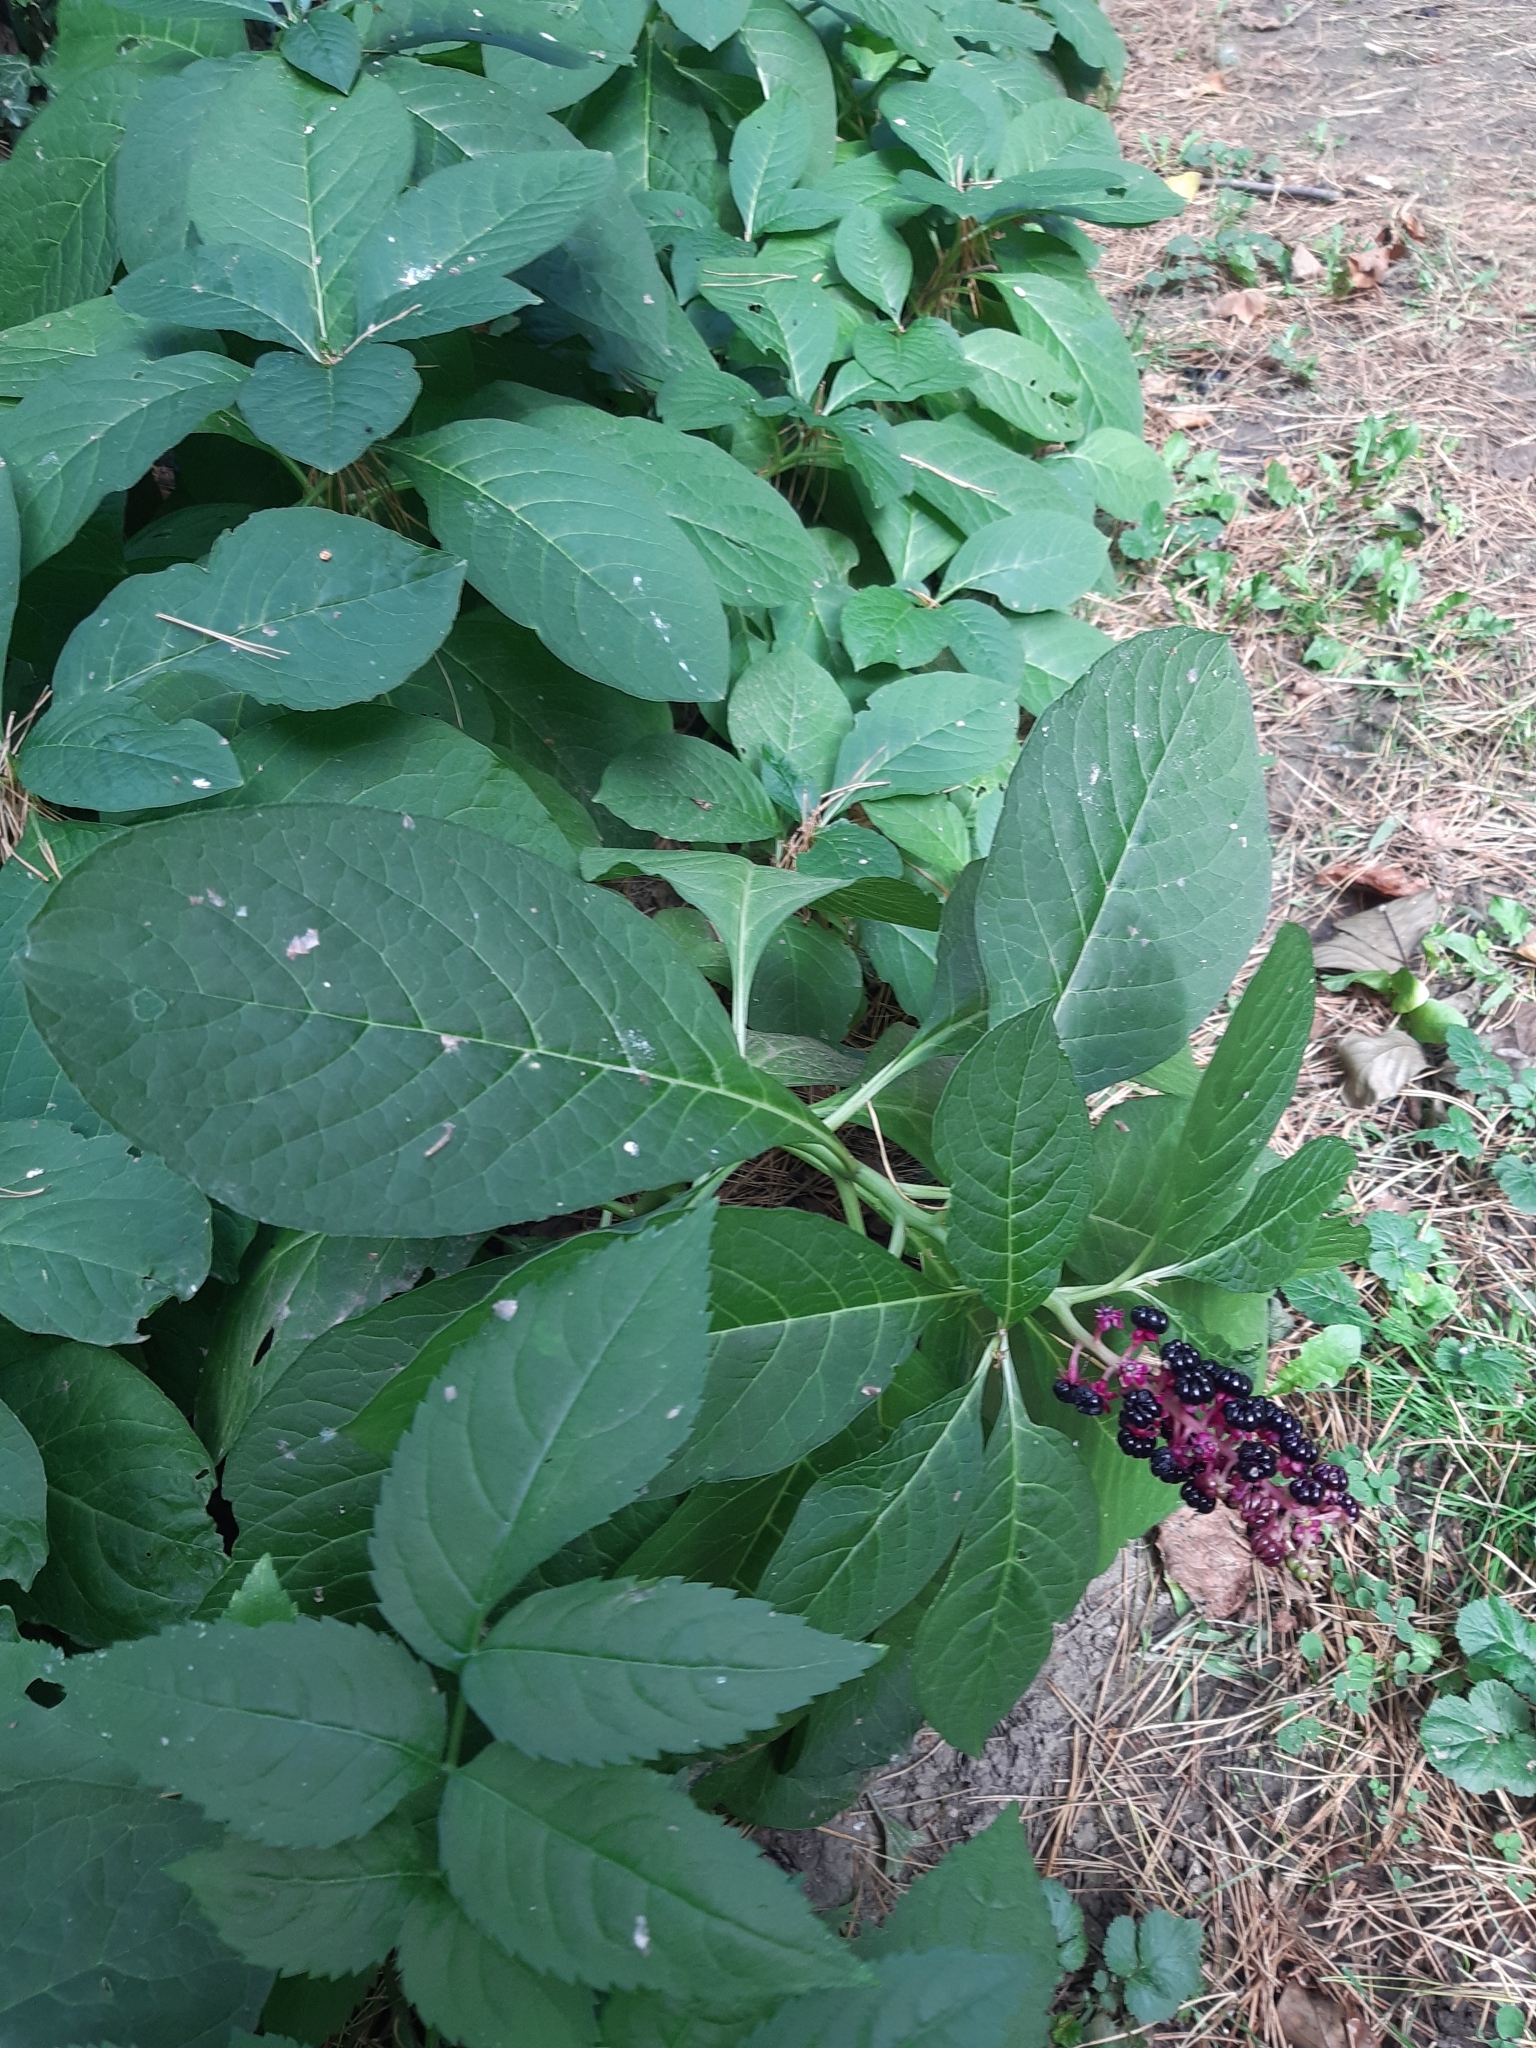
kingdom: Plantae
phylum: Tracheophyta
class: Magnoliopsida
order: Caryophyllales
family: Phytolaccaceae
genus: Phytolacca
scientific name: Phytolacca acinosa
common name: Indian pokeweed
